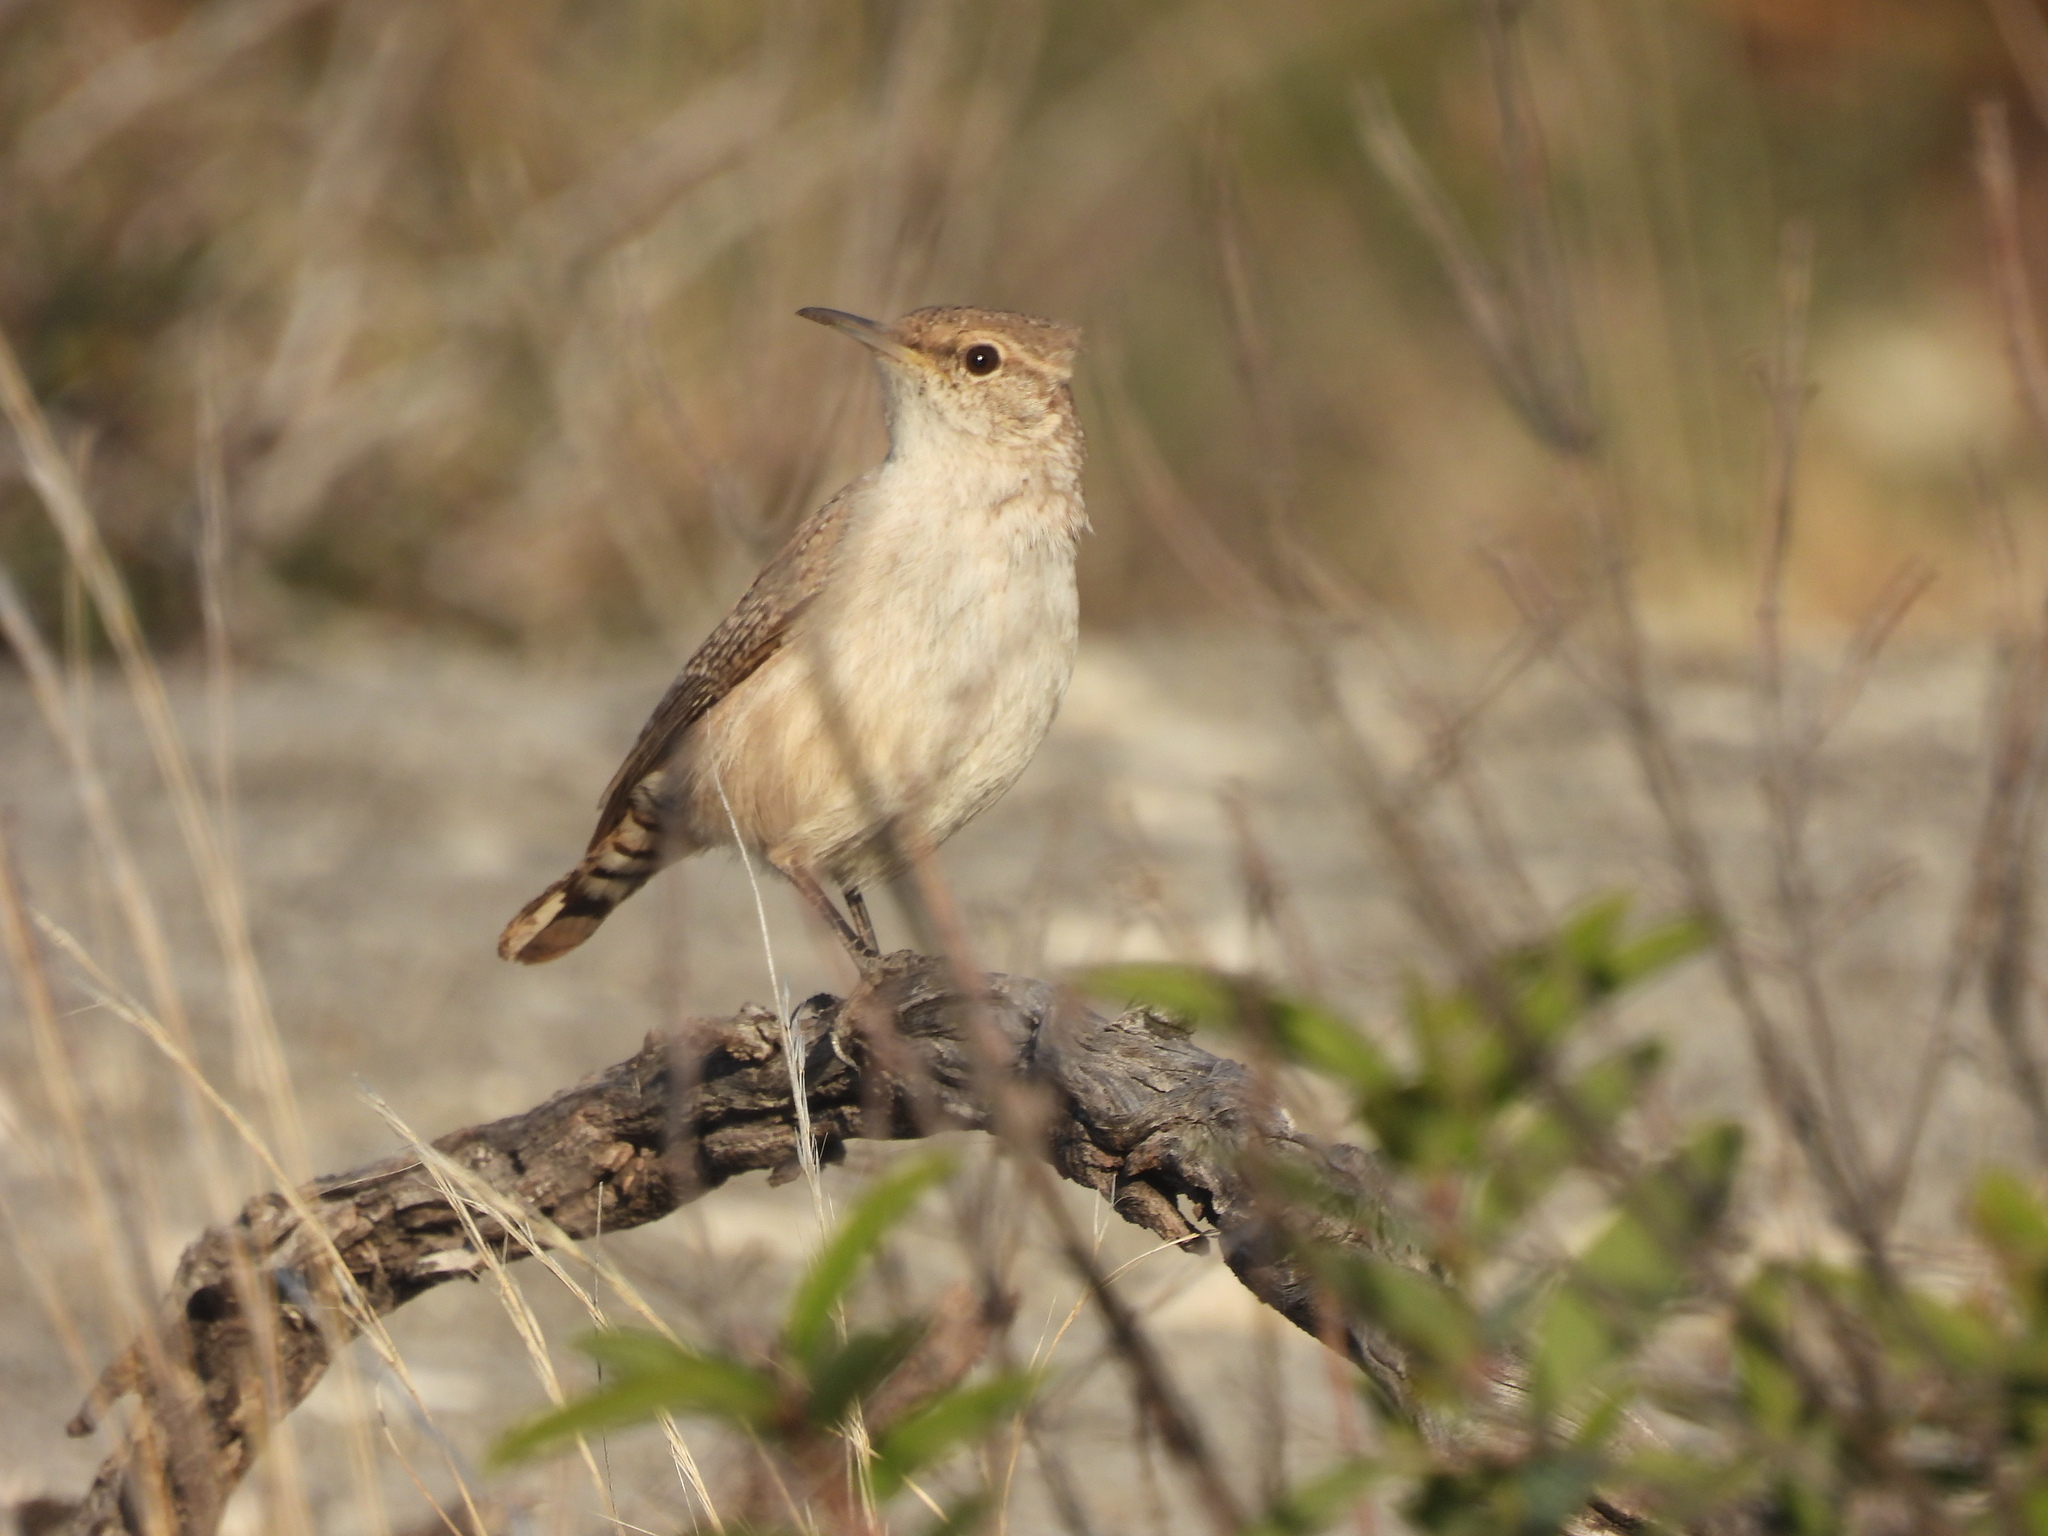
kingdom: Animalia
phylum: Chordata
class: Aves
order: Passeriformes
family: Troglodytidae
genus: Salpinctes
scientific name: Salpinctes obsoletus
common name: Rock wren
